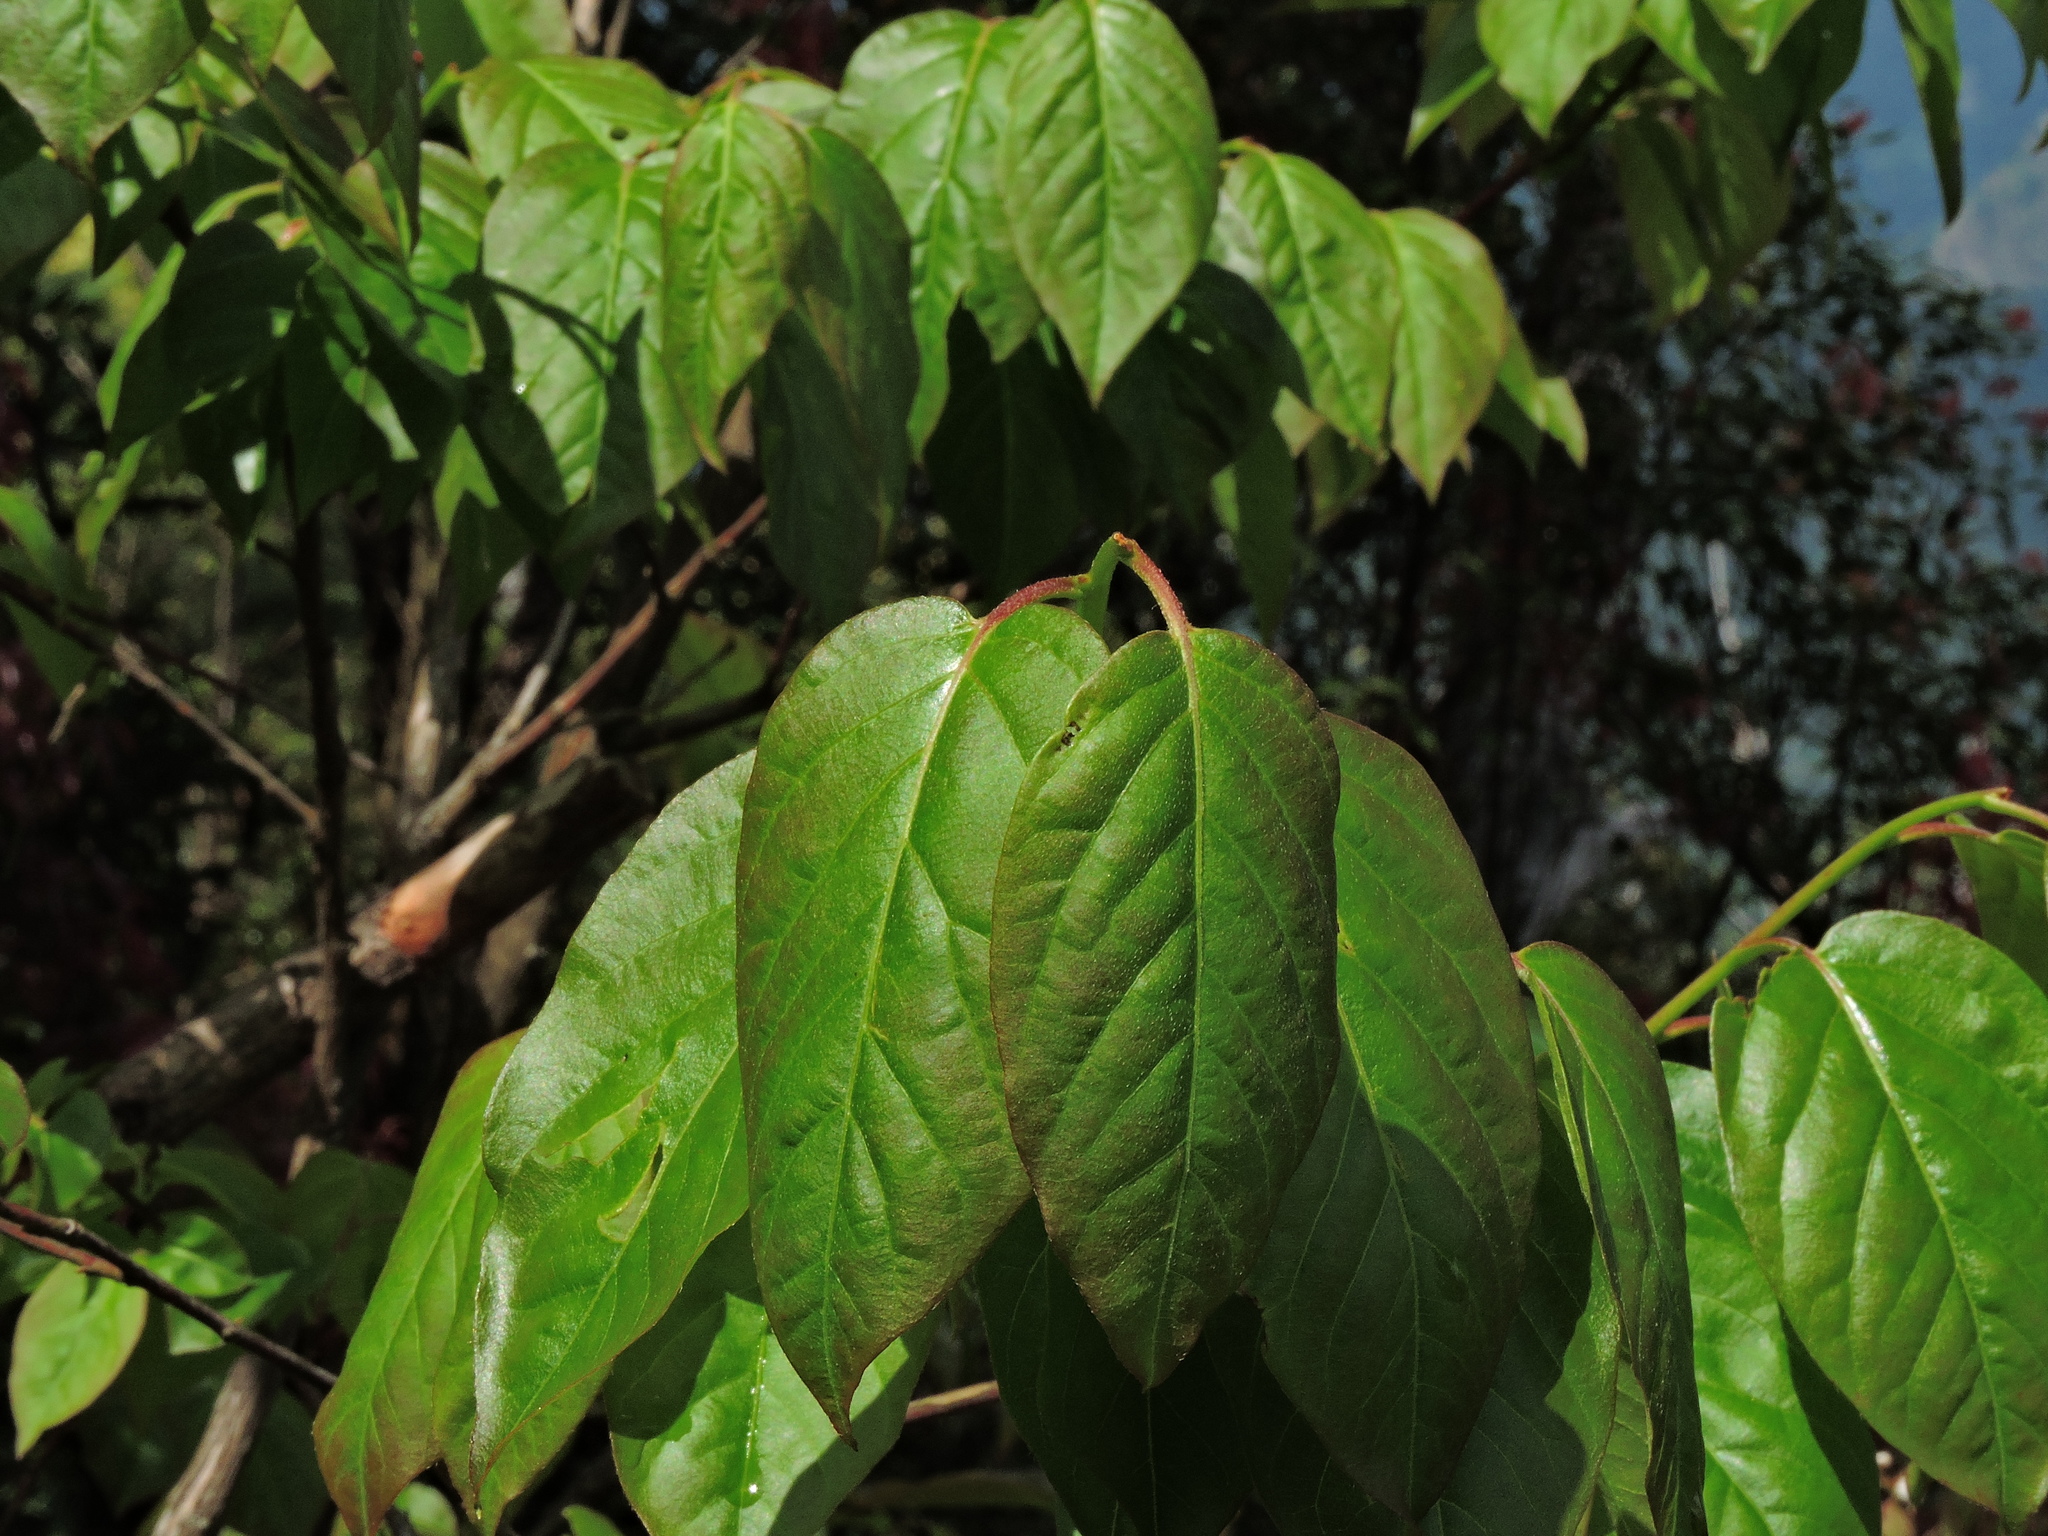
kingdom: Plantae
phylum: Tracheophyta
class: Magnoliopsida
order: Ericales
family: Ericaceae
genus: Lyonia
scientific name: Lyonia ovalifolia
